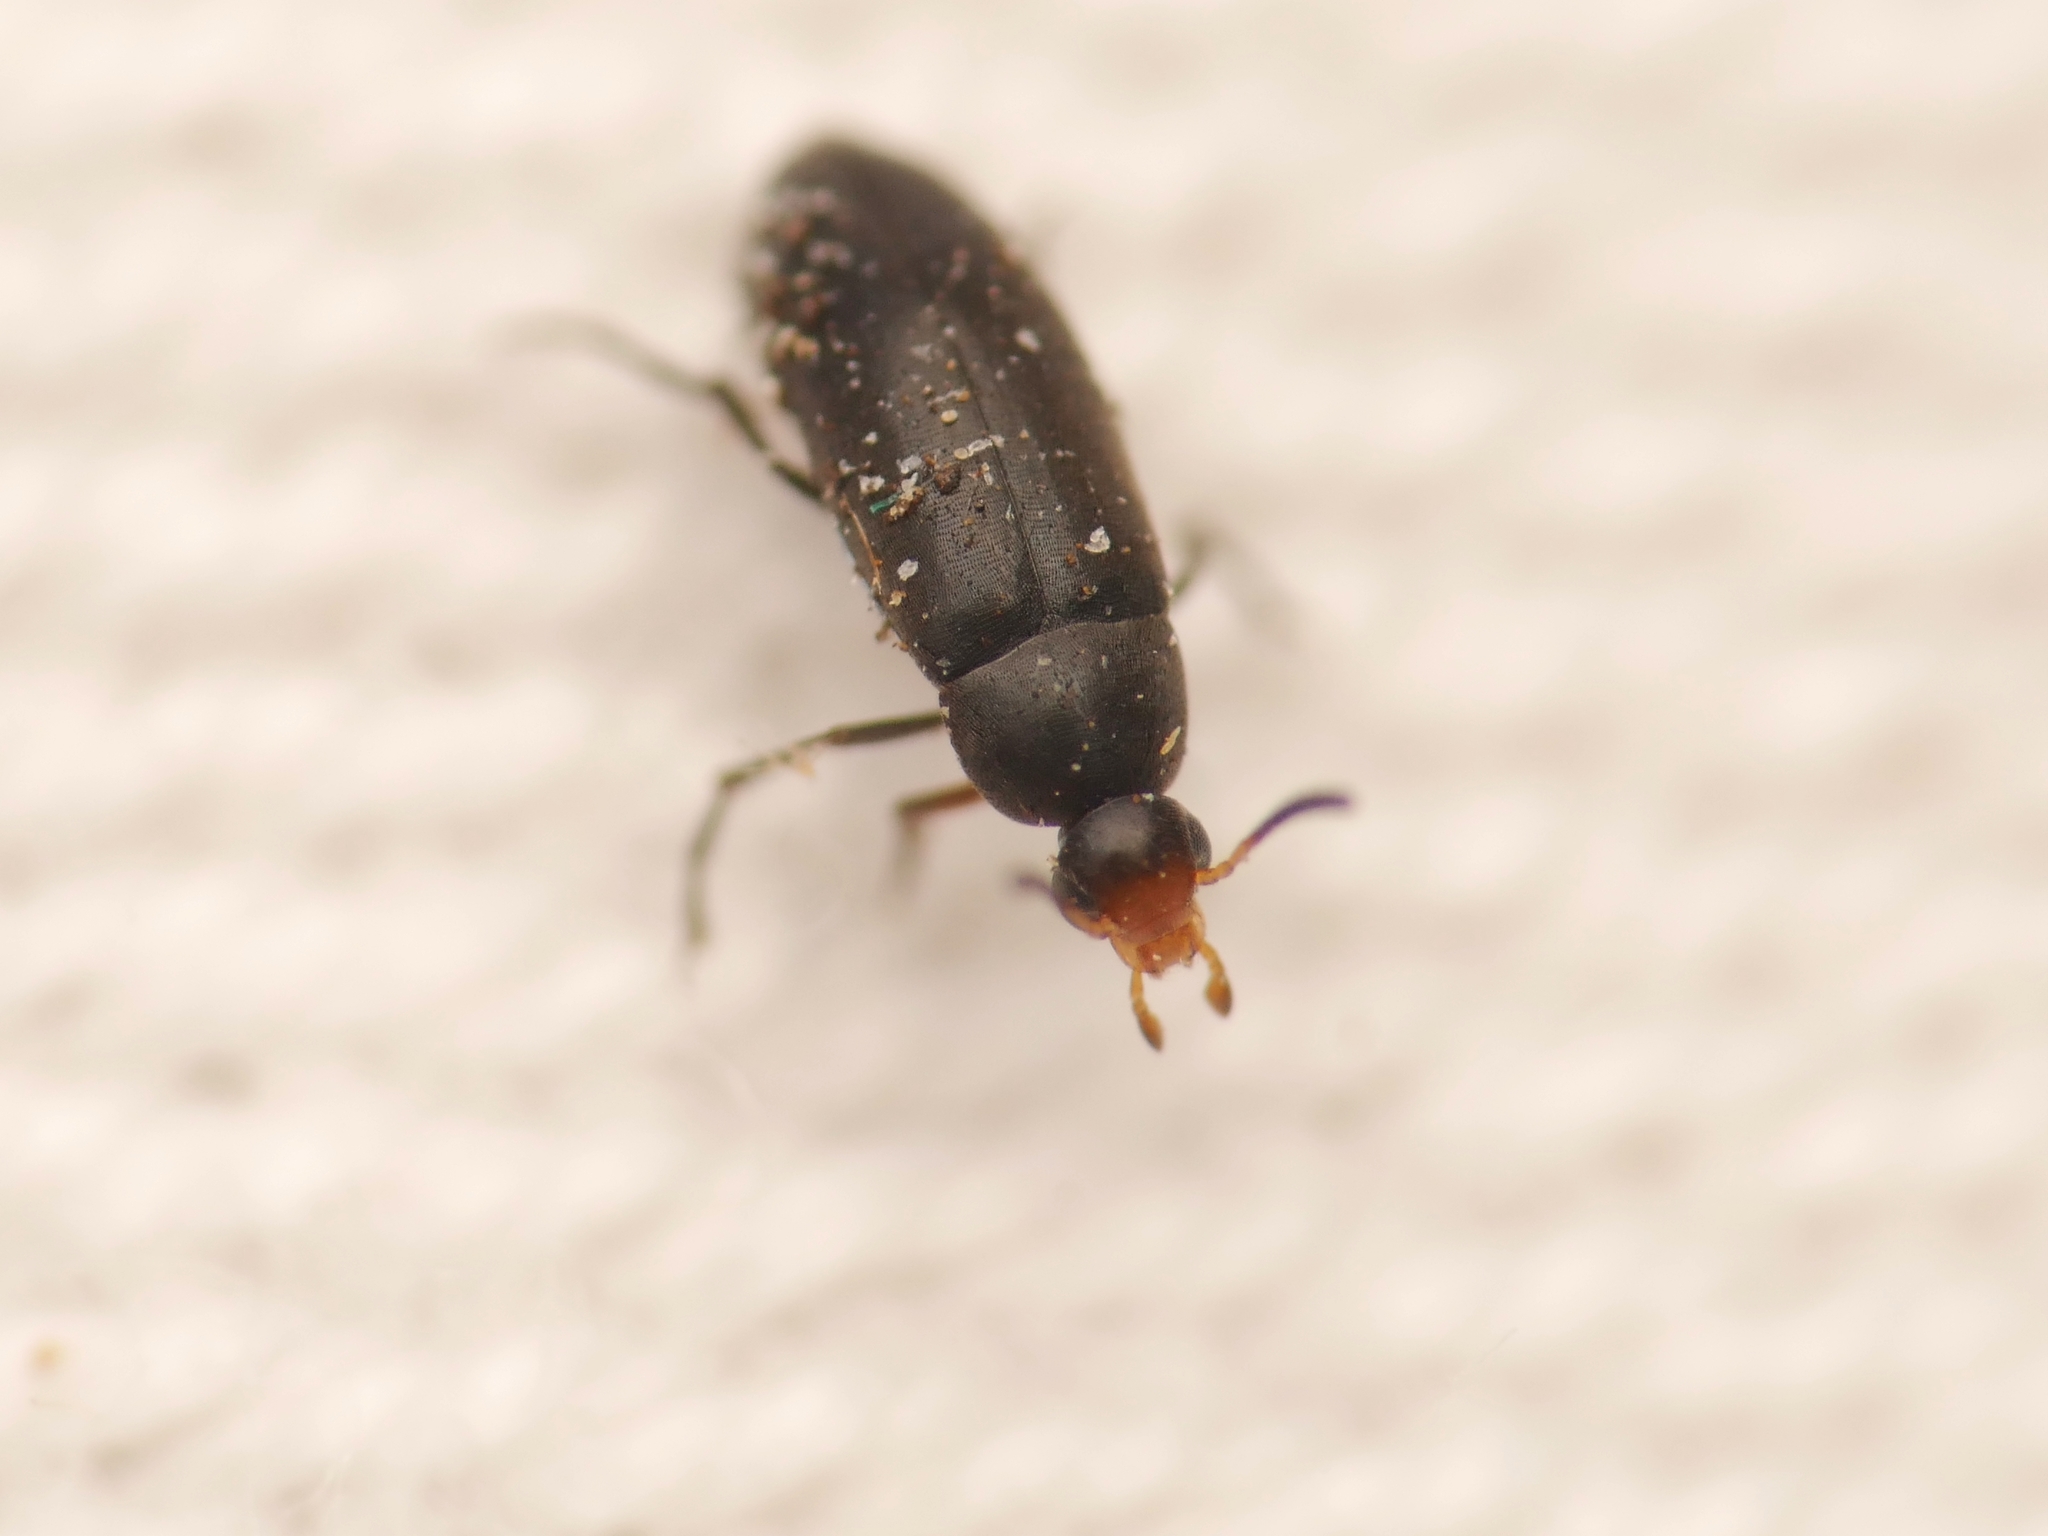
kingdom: Animalia
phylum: Arthropoda
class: Insecta
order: Coleoptera
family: Scraptiidae
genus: Anaspis
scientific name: Anaspis frontalis
